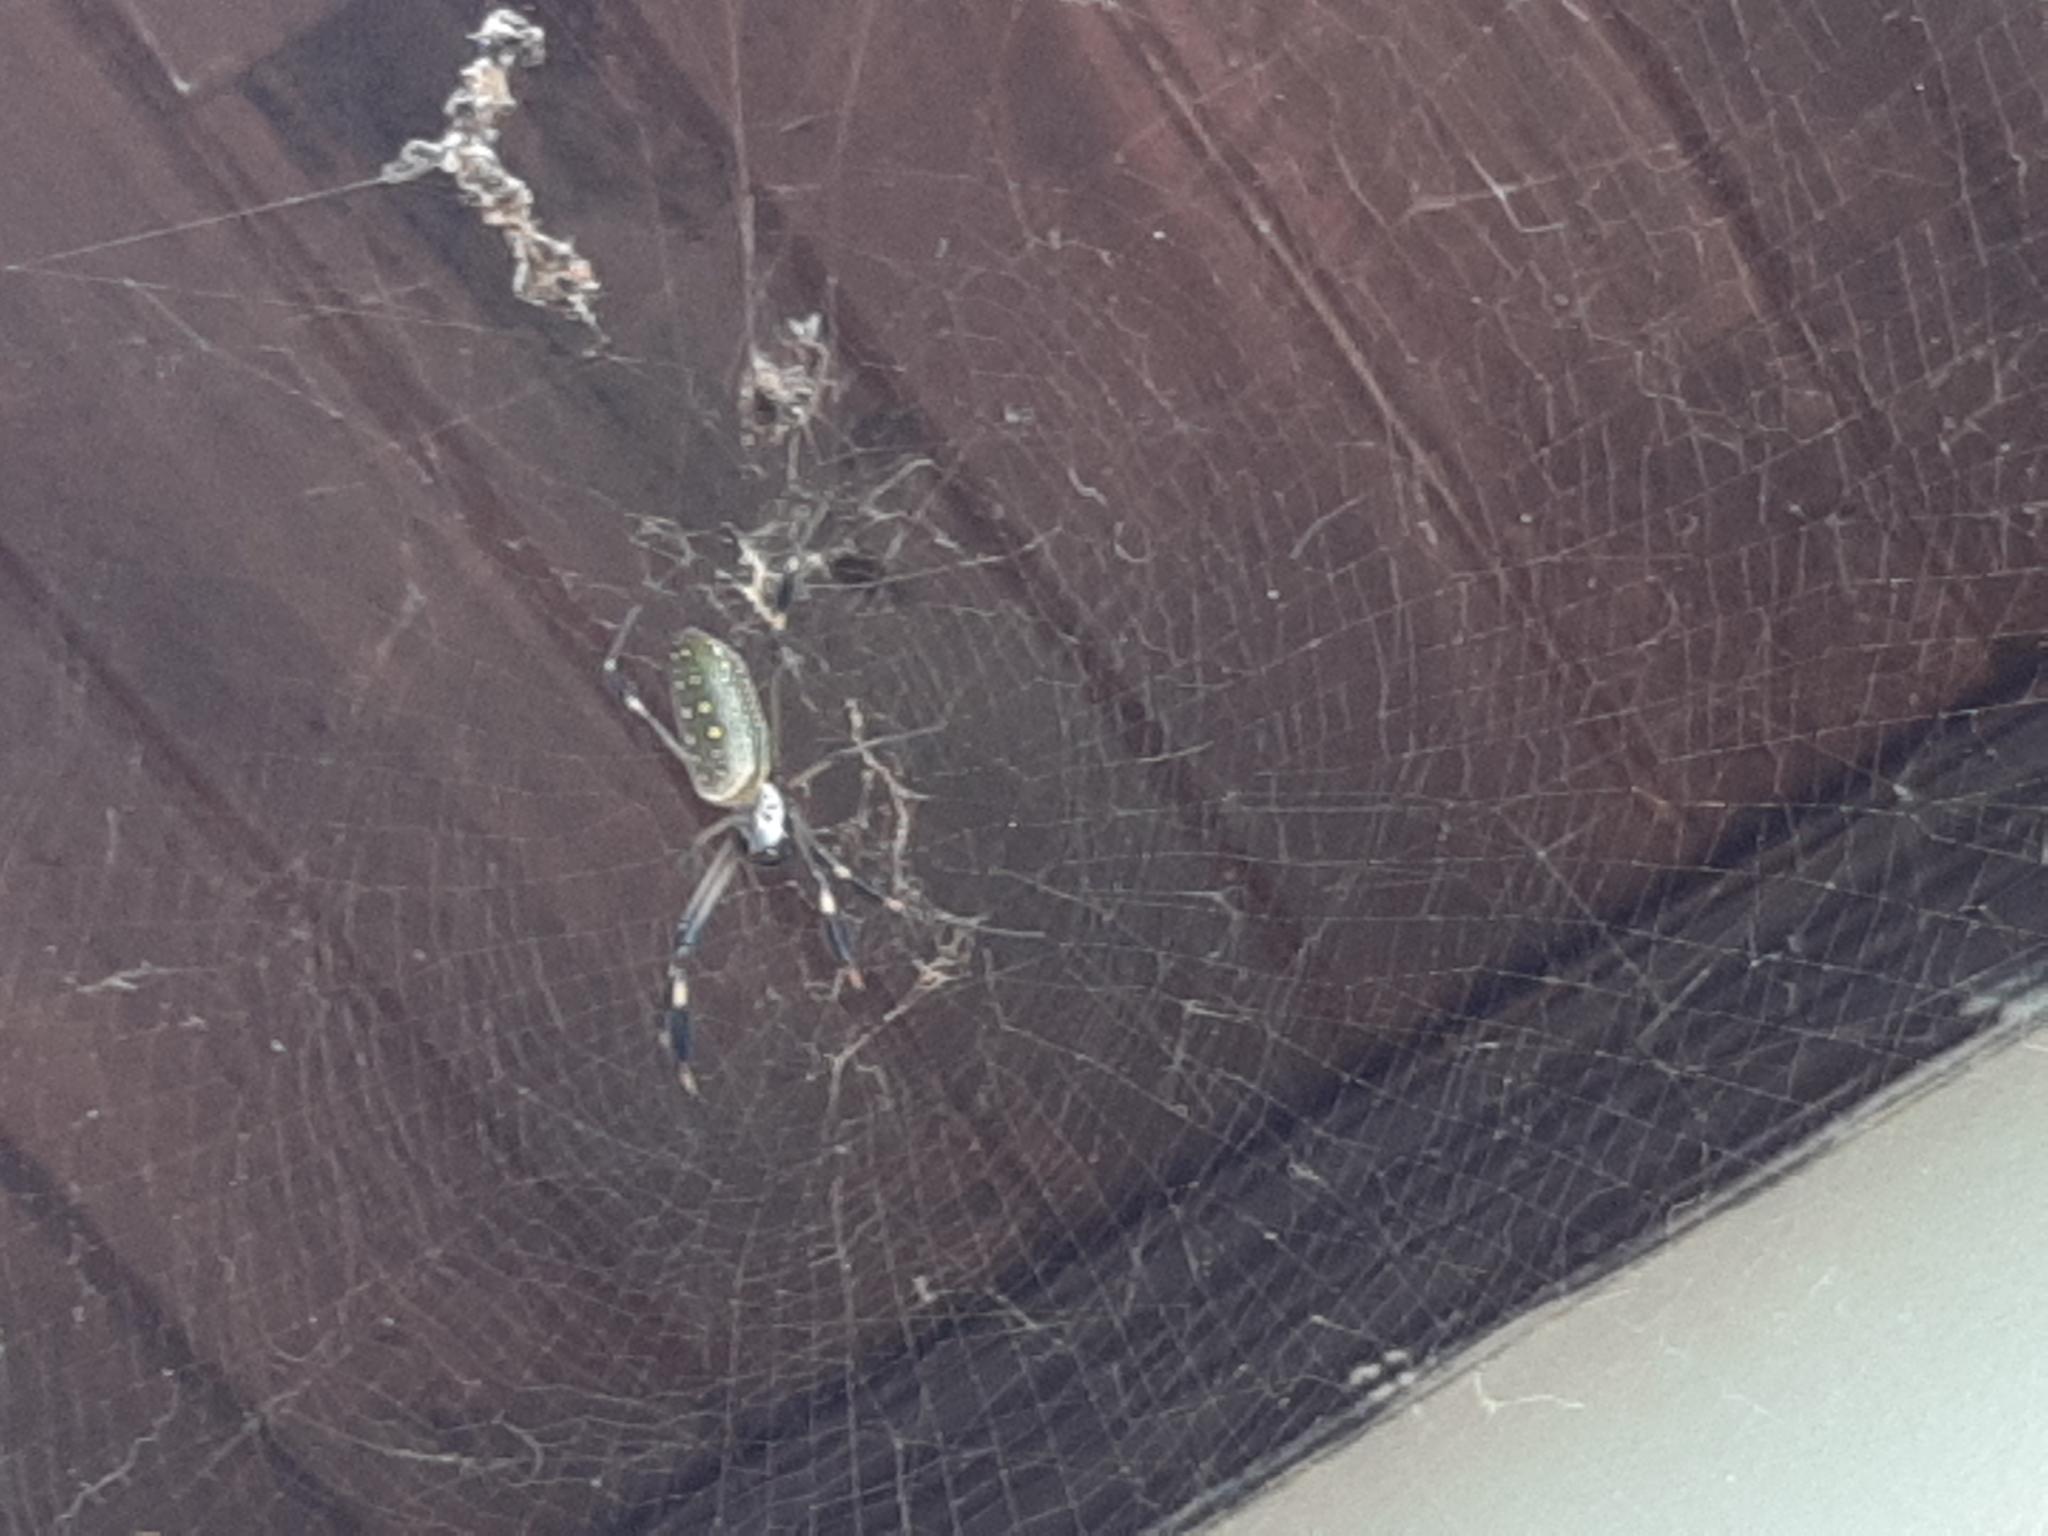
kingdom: Animalia
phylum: Arthropoda
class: Arachnida
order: Araneae
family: Araneidae
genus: Trichonephila
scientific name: Trichonephila clavipes
